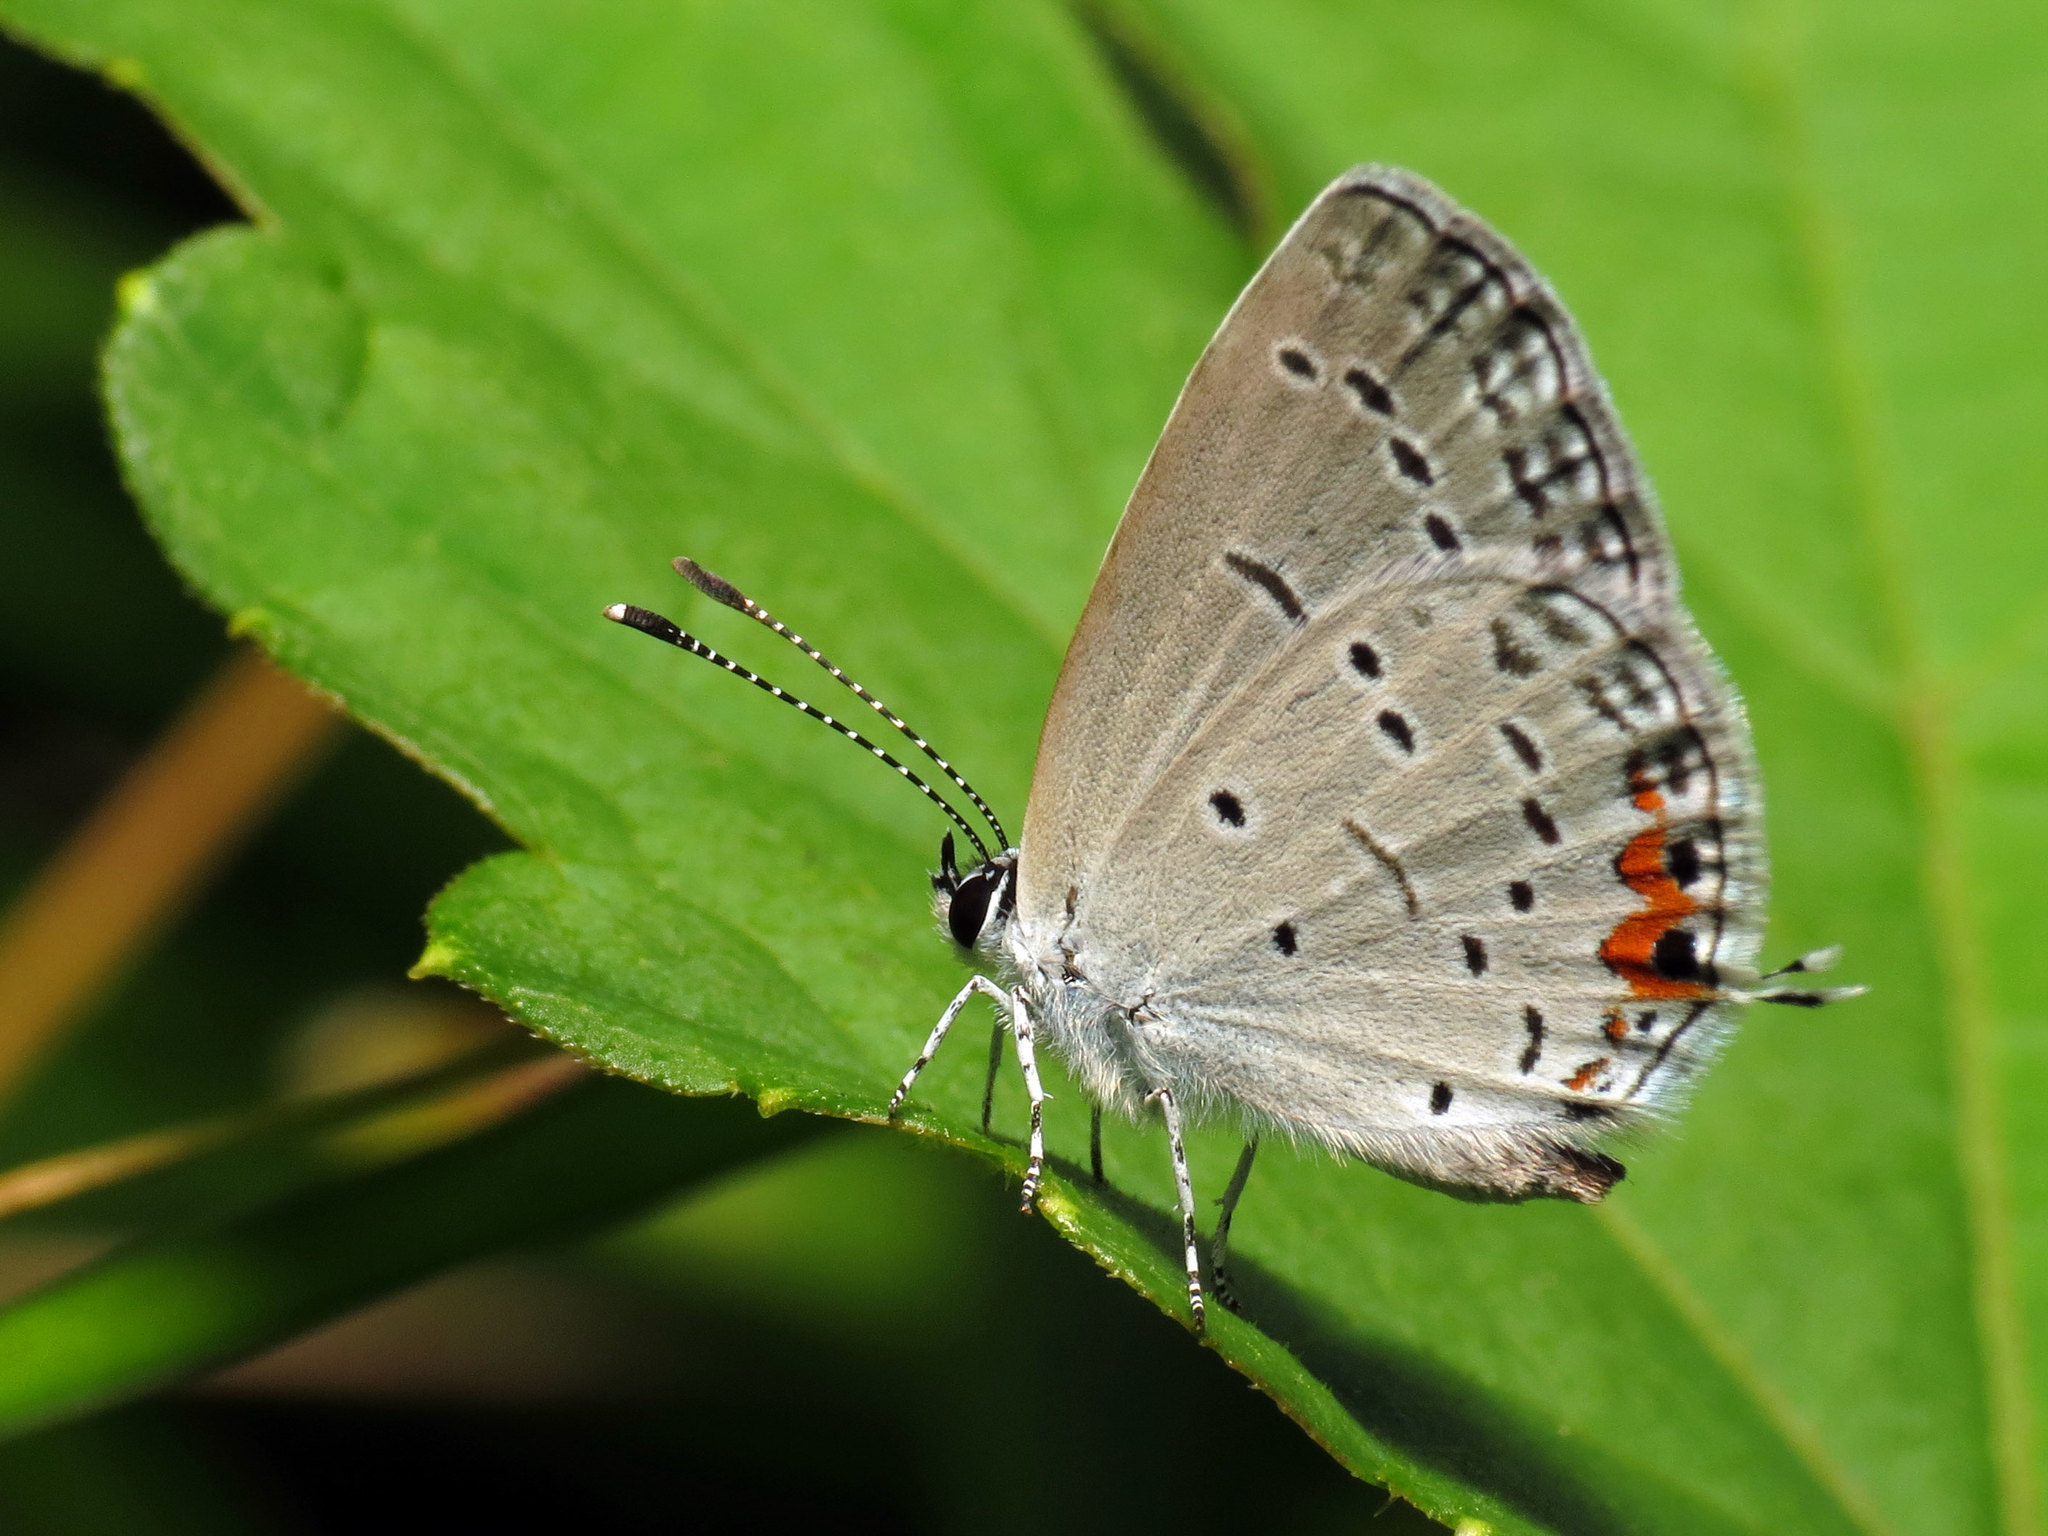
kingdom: Animalia
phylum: Arthropoda
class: Insecta
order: Lepidoptera
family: Lycaenidae
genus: Elkalyce
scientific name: Elkalyce comyntas
